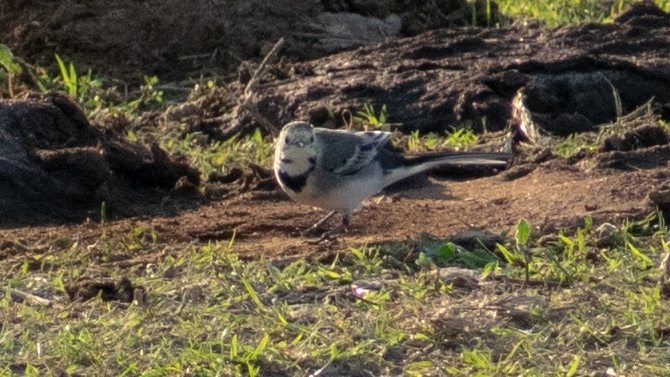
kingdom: Animalia
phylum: Chordata
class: Aves
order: Passeriformes
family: Motacillidae
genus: Motacilla
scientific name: Motacilla alba
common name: White wagtail
